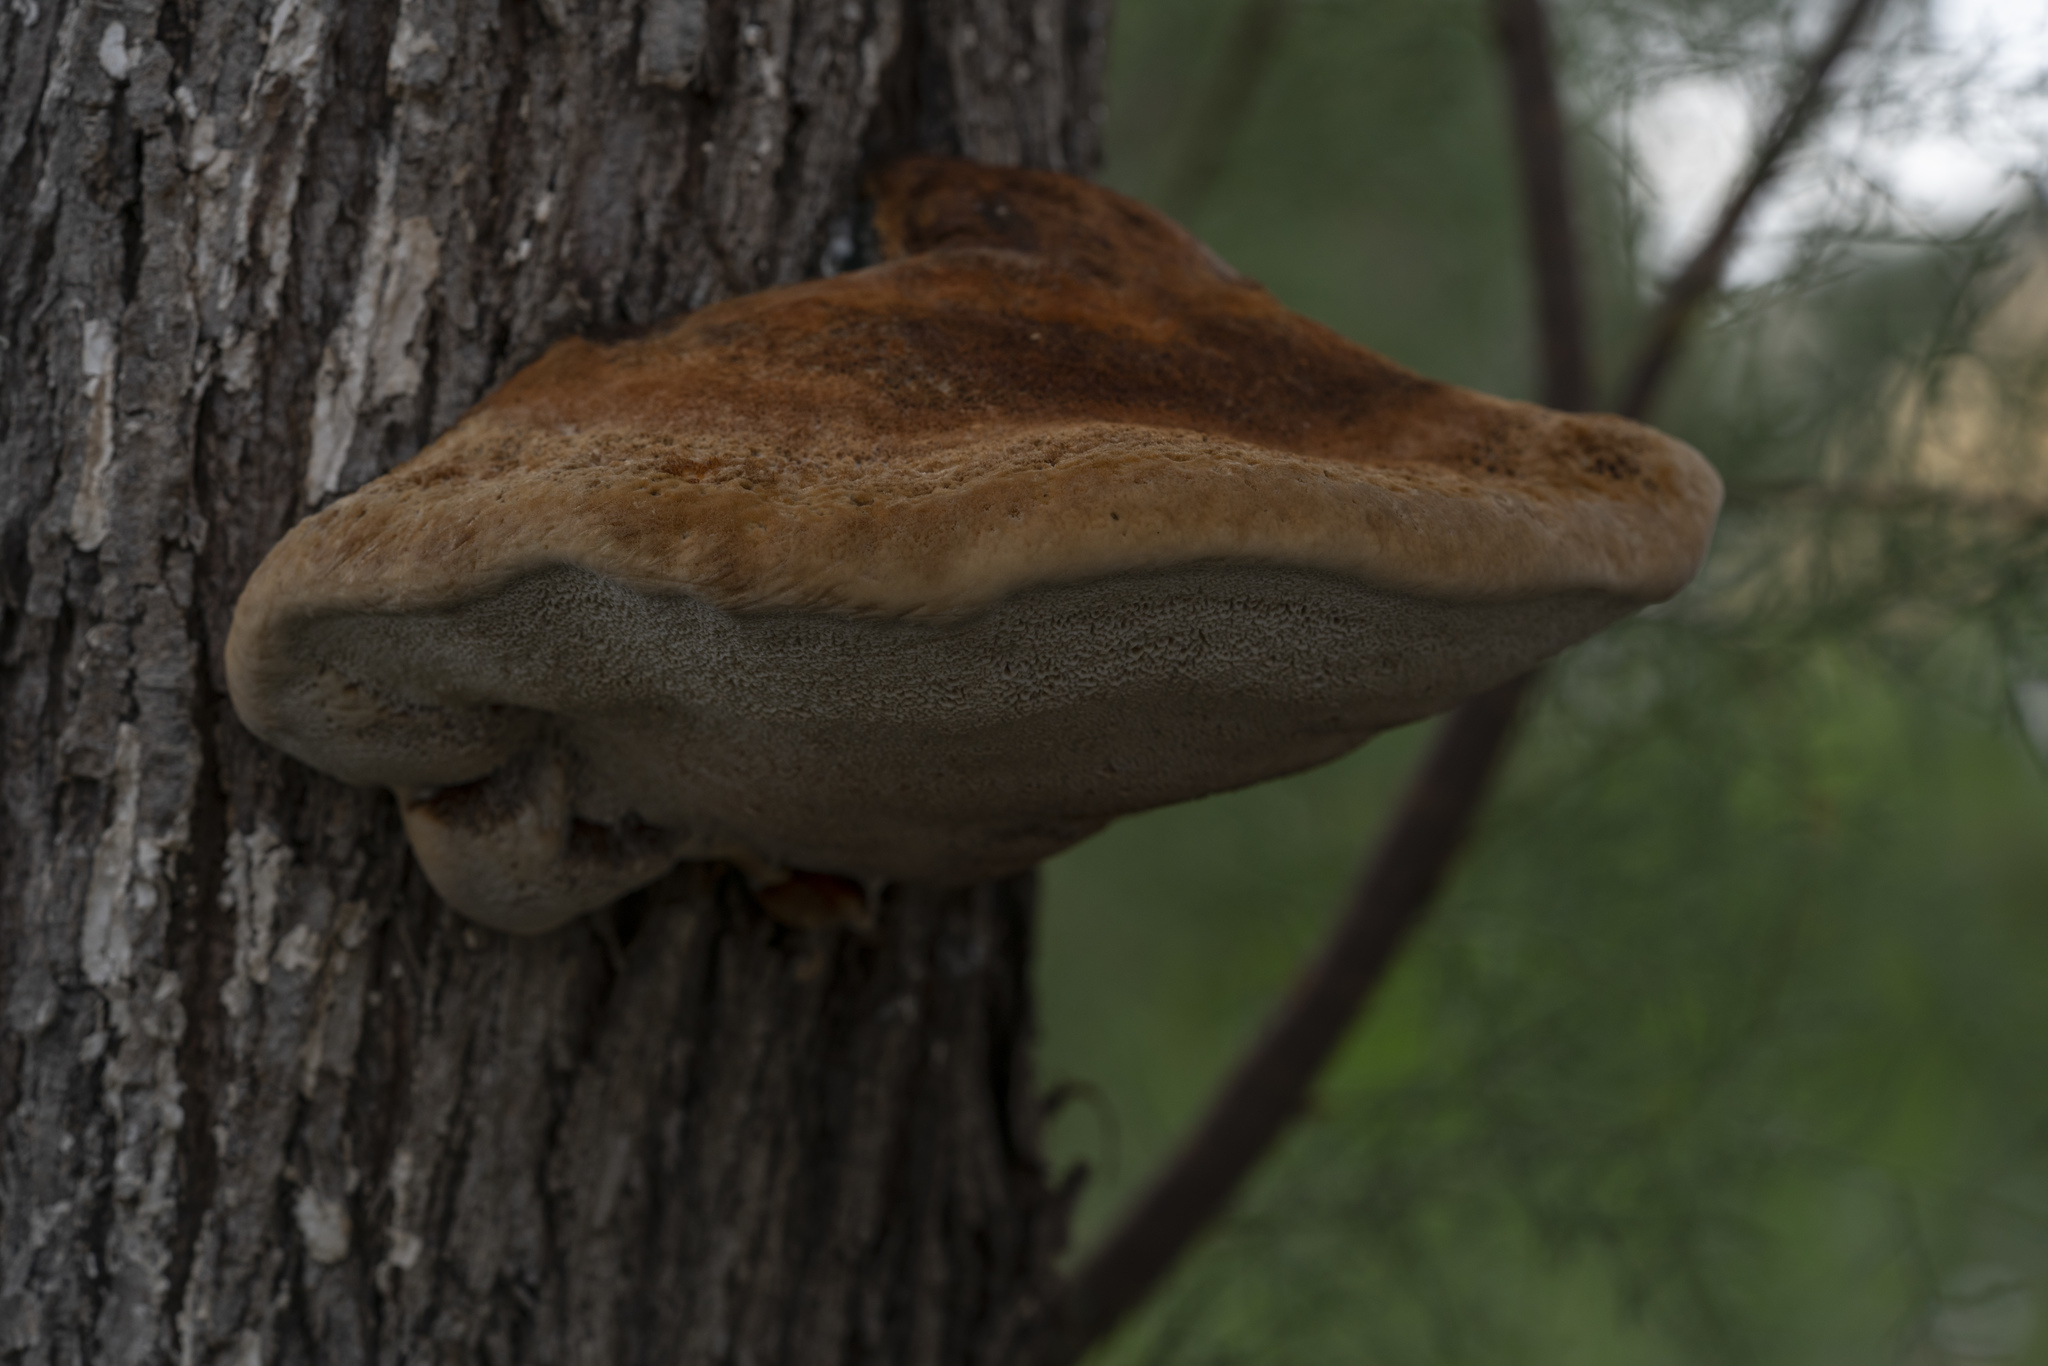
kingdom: Fungi
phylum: Basidiomycota
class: Agaricomycetes
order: Hymenochaetales
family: Hymenochaetaceae
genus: Inocutis
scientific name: Inocutis tamaricis
